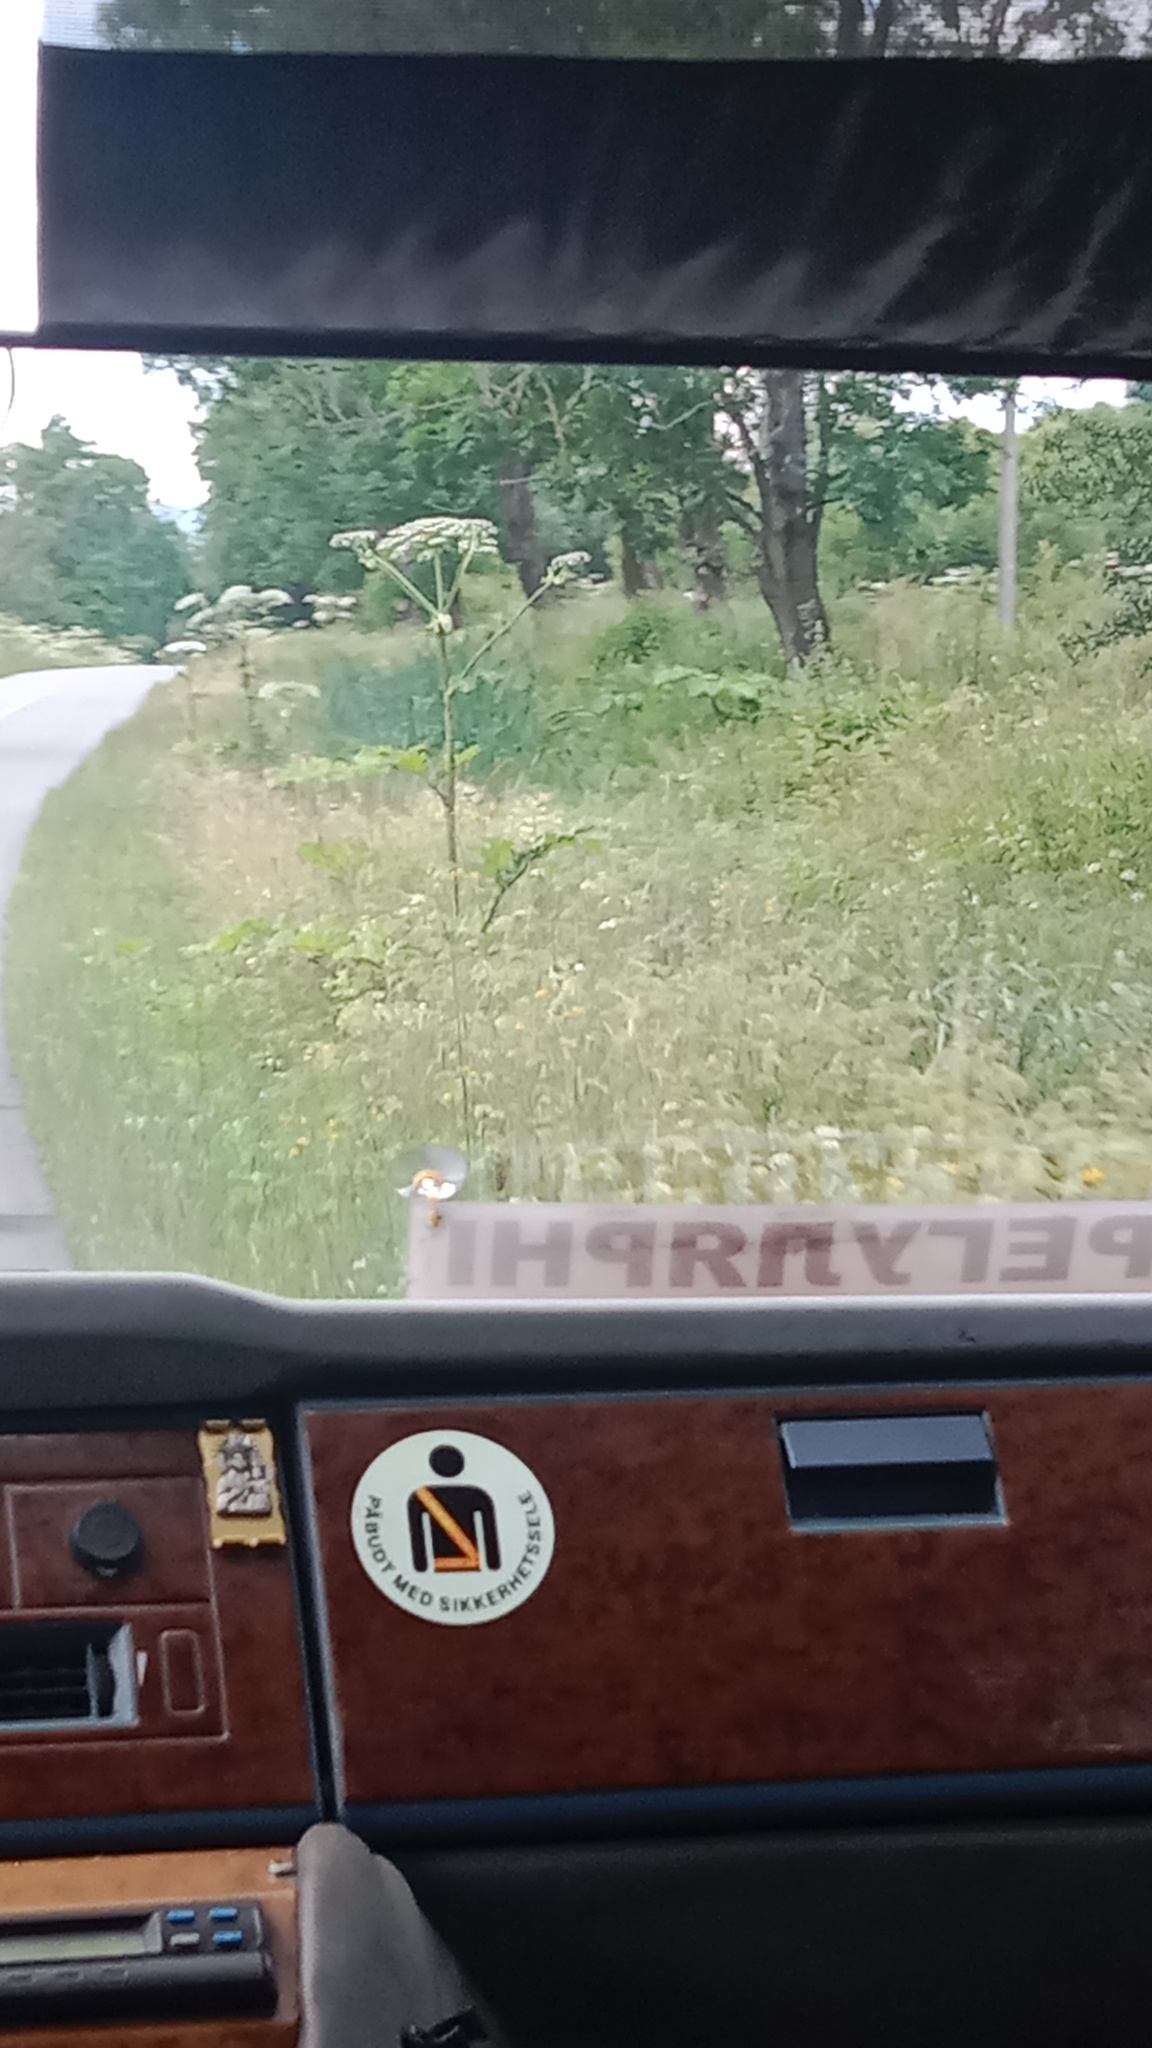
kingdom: Plantae
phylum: Tracheophyta
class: Magnoliopsida
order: Apiales
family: Apiaceae
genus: Heracleum
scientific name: Heracleum sosnowskyi
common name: Sosnowsky's hogweed
